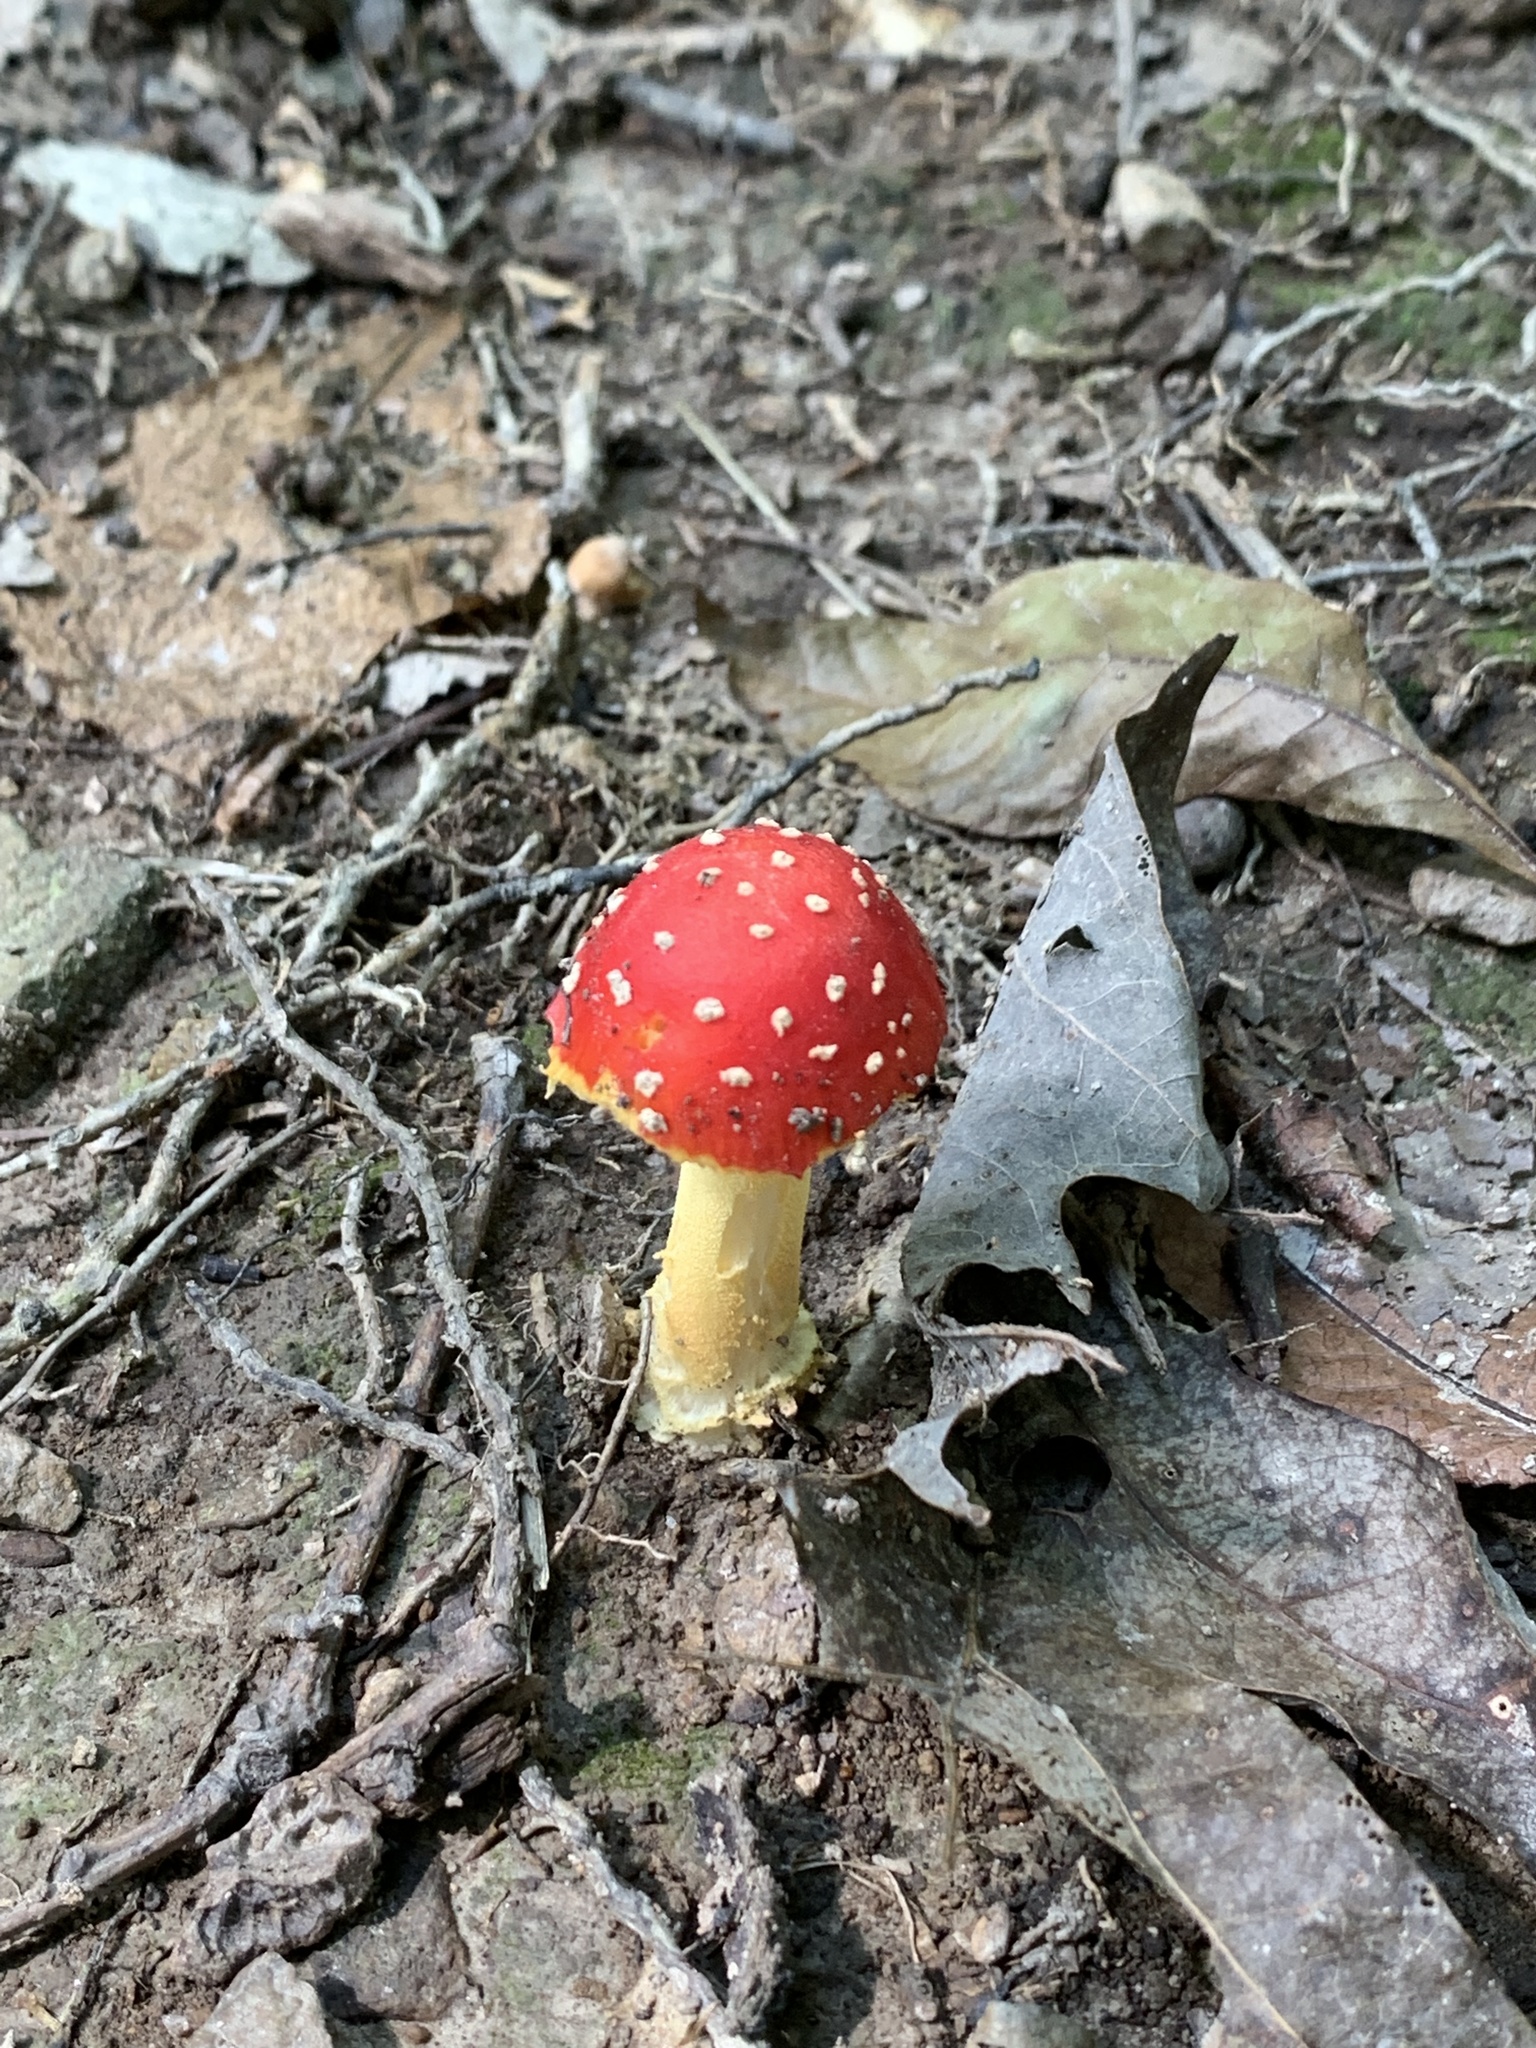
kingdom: Fungi
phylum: Basidiomycota
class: Agaricomycetes
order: Agaricales
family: Amanitaceae
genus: Amanita
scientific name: Amanita parcivolvata
